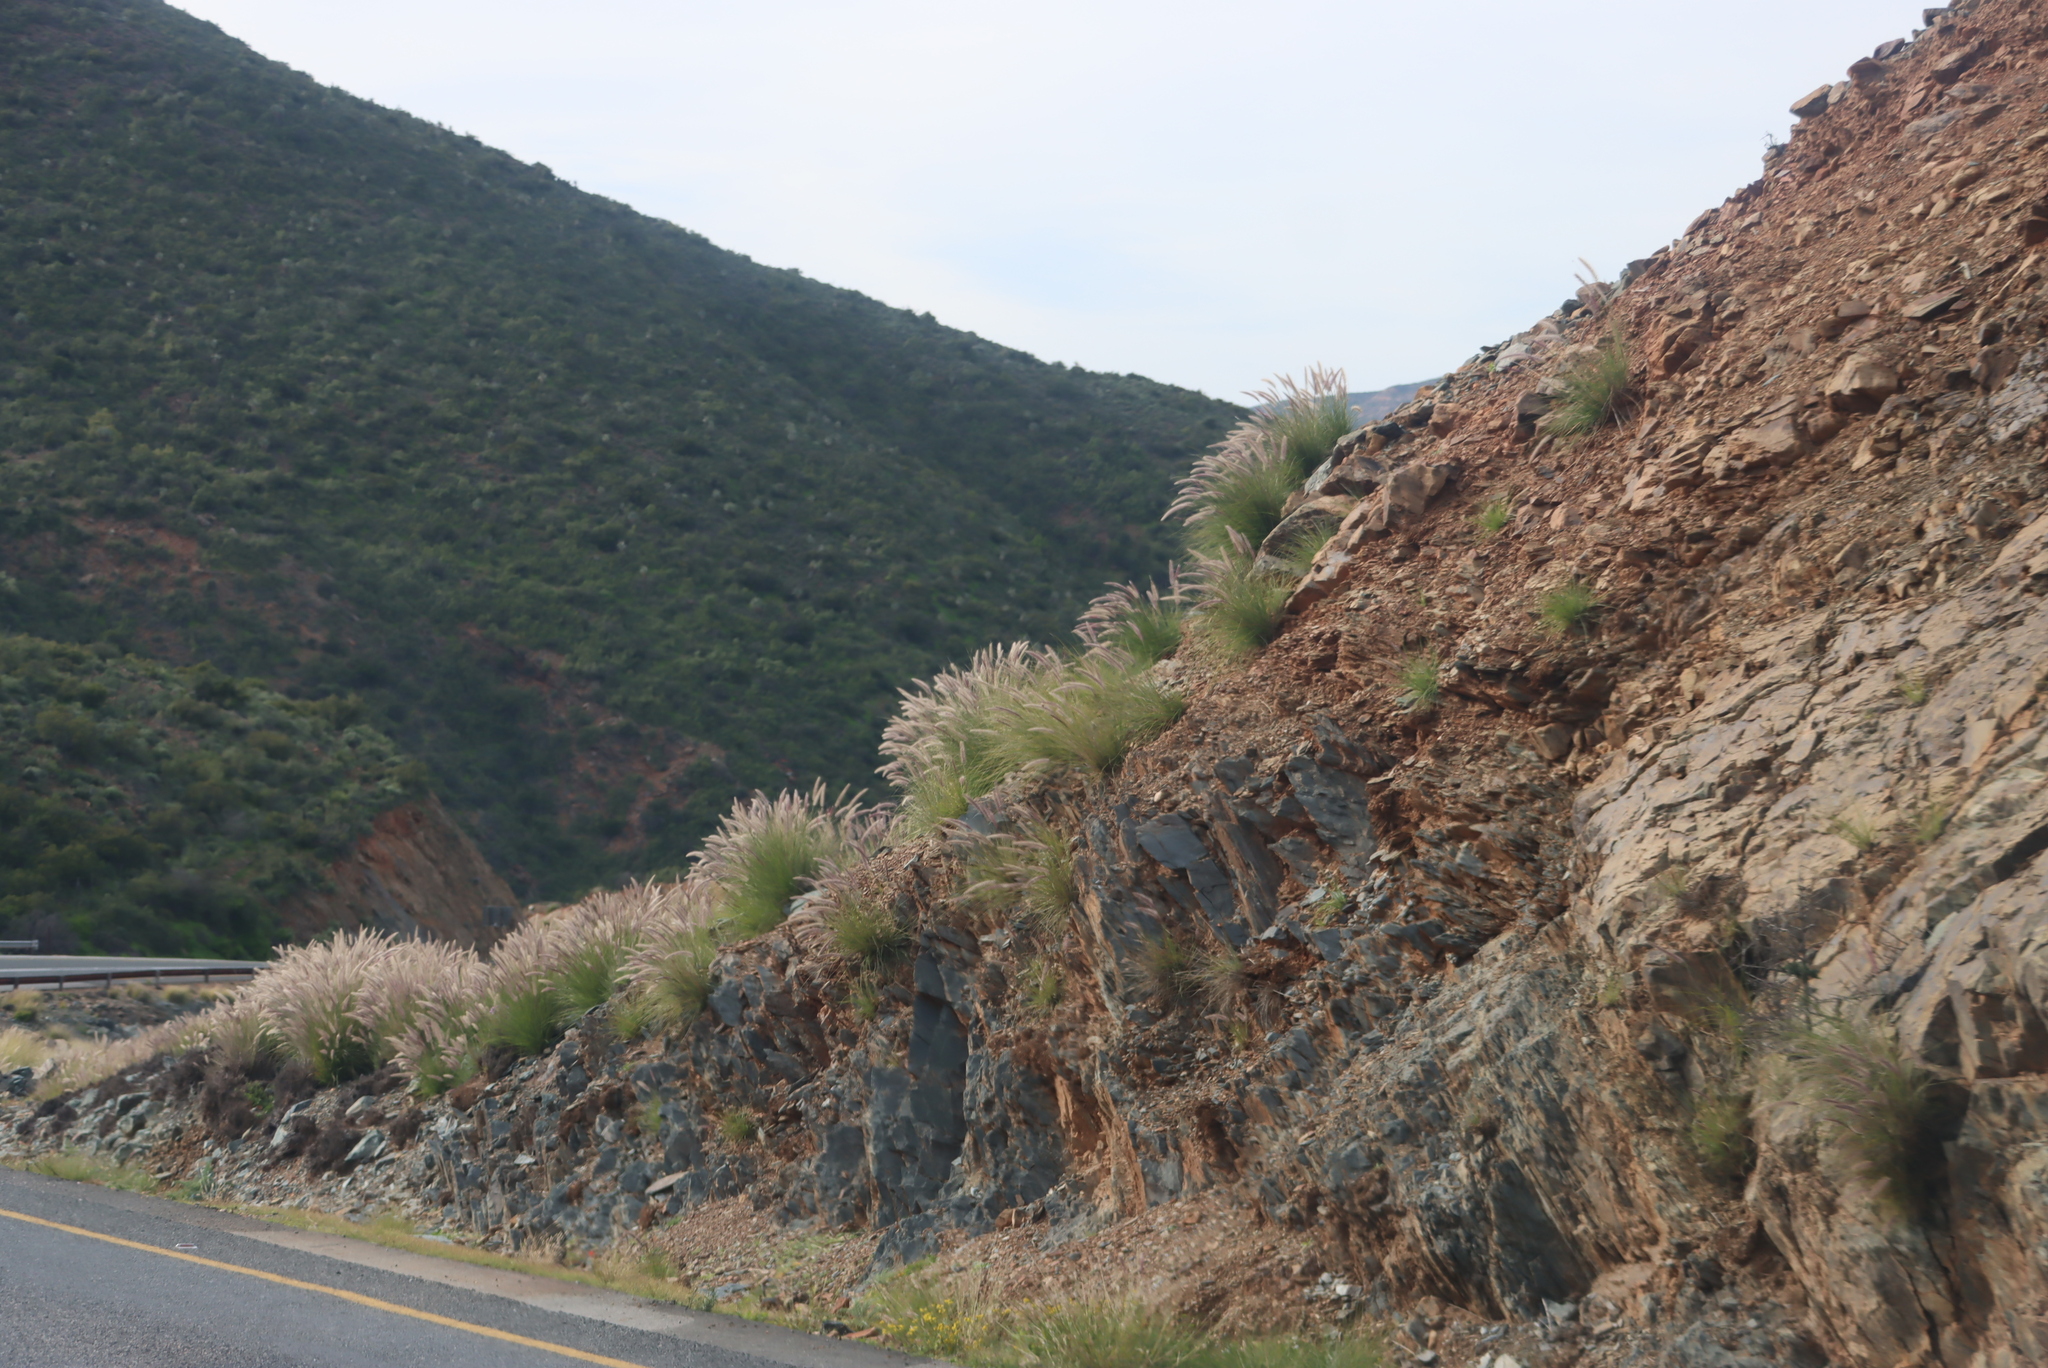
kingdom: Plantae
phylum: Tracheophyta
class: Liliopsida
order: Poales
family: Poaceae
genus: Cenchrus
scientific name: Cenchrus setaceus
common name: Crimson fountaingrass
